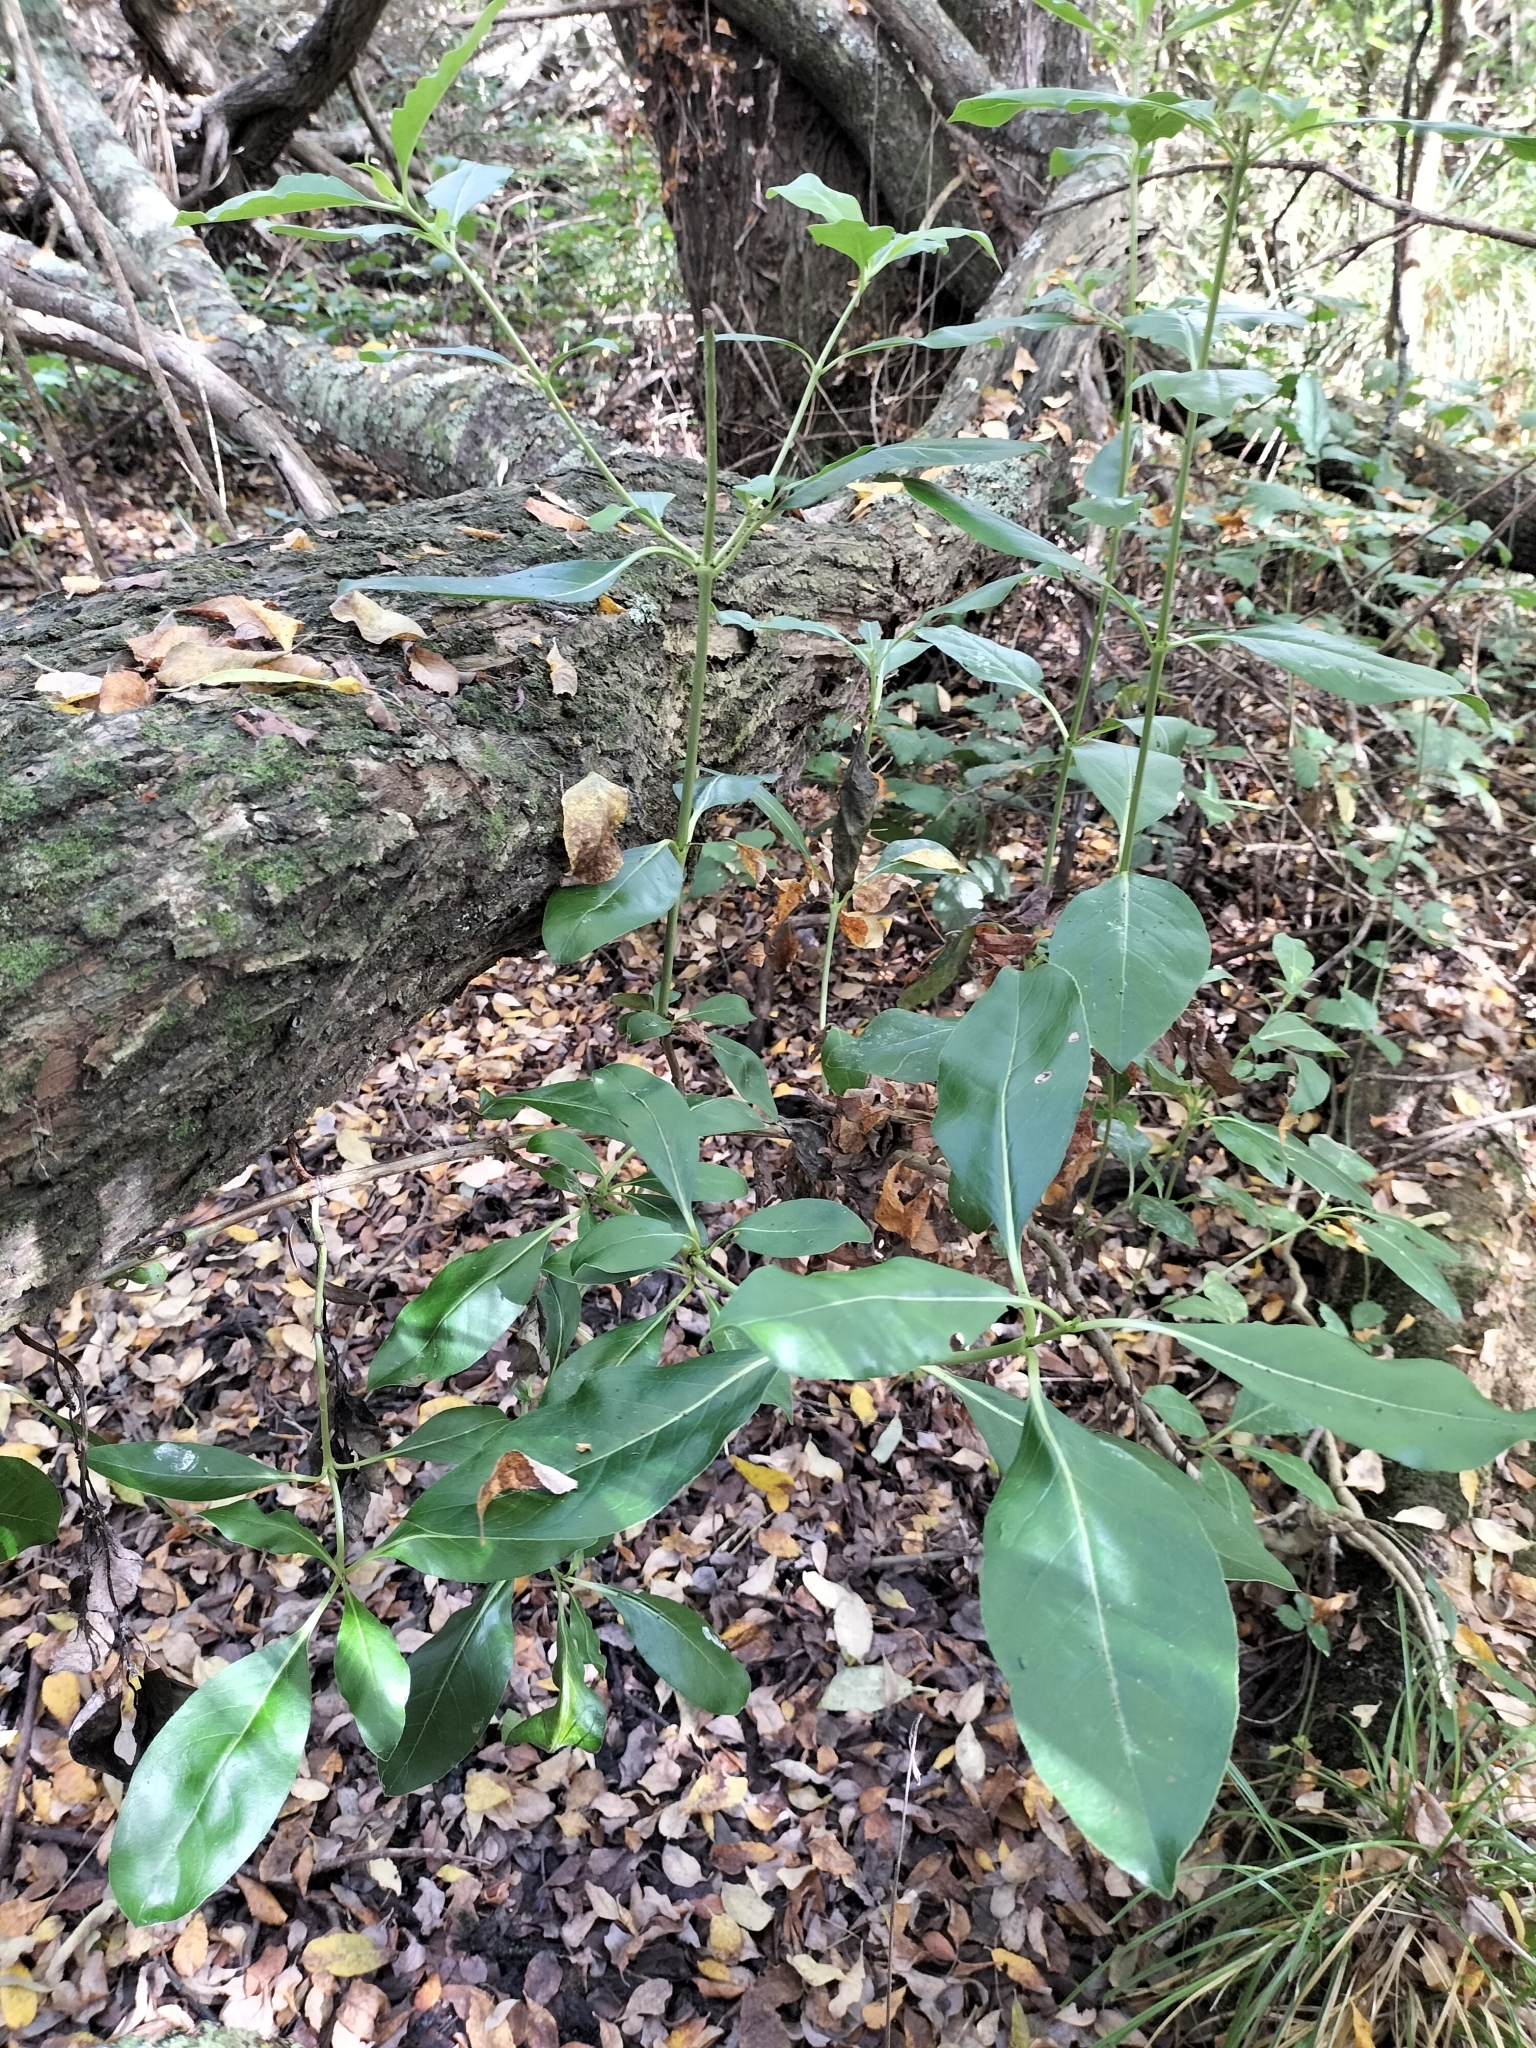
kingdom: Plantae
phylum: Tracheophyta
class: Magnoliopsida
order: Gentianales
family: Rubiaceae
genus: Coprosma
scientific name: Coprosma robusta
